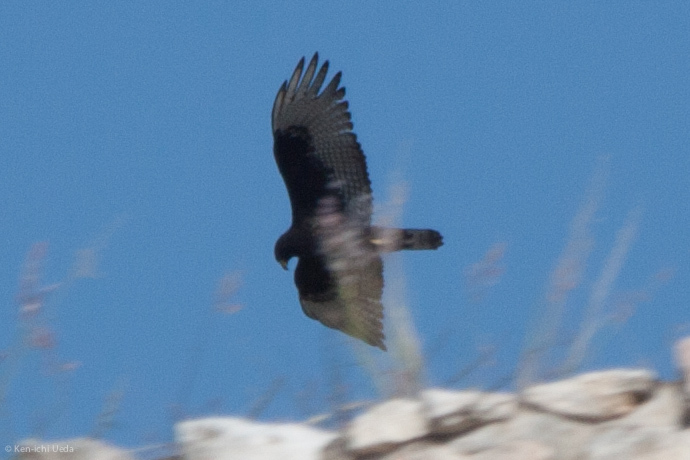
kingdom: Animalia
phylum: Chordata
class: Aves
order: Accipitriformes
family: Accipitridae
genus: Buteo
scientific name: Buteo albonotatus
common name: Zone-tailed hawk
